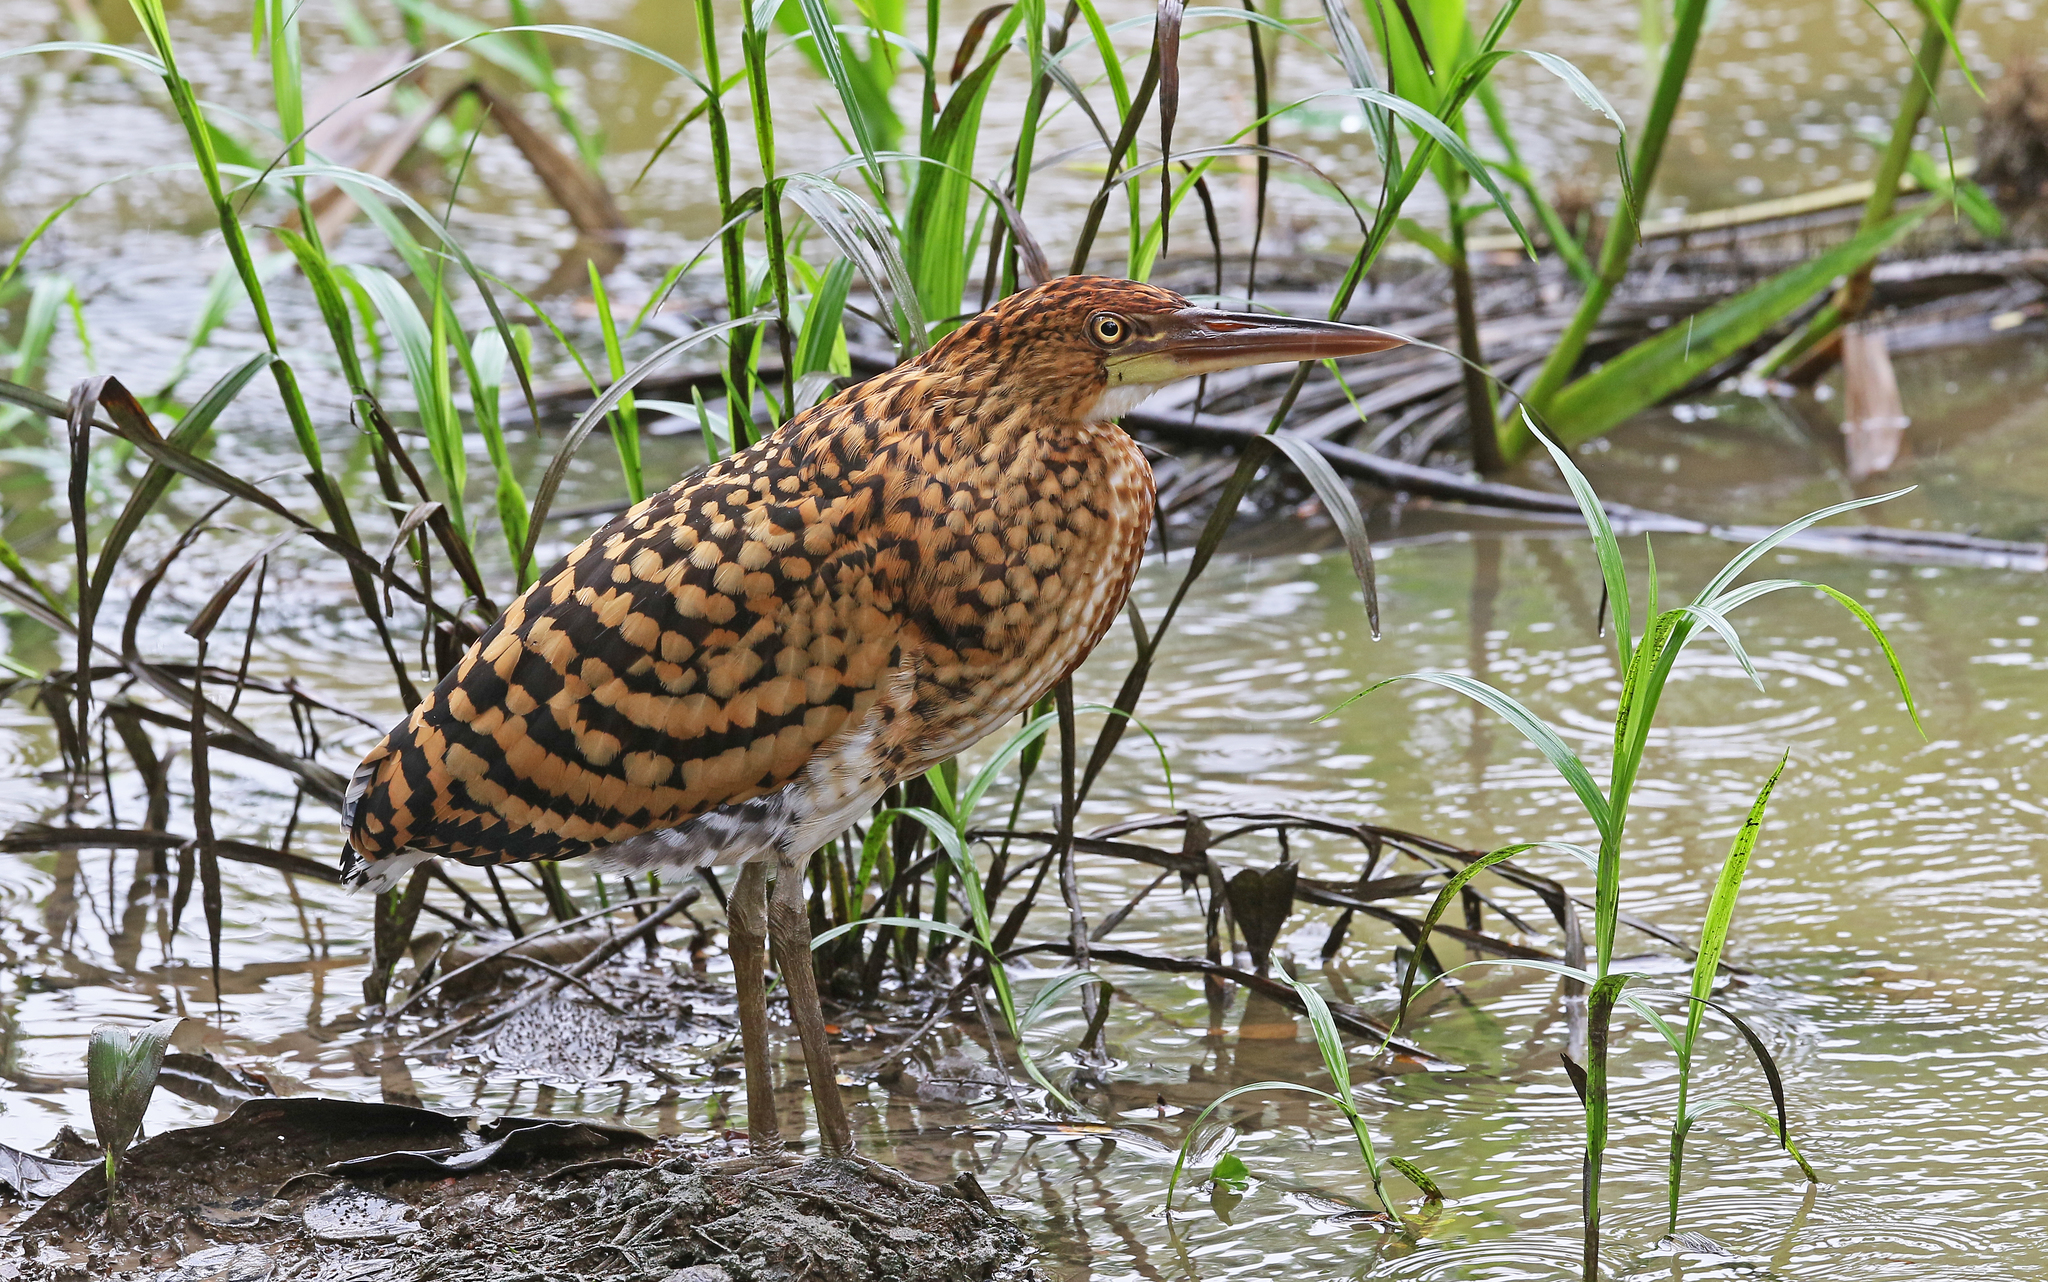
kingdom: Animalia
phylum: Chordata
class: Aves
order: Pelecaniformes
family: Ardeidae
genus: Tigrisoma
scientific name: Tigrisoma lineatum
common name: Rufescent tiger-heron
